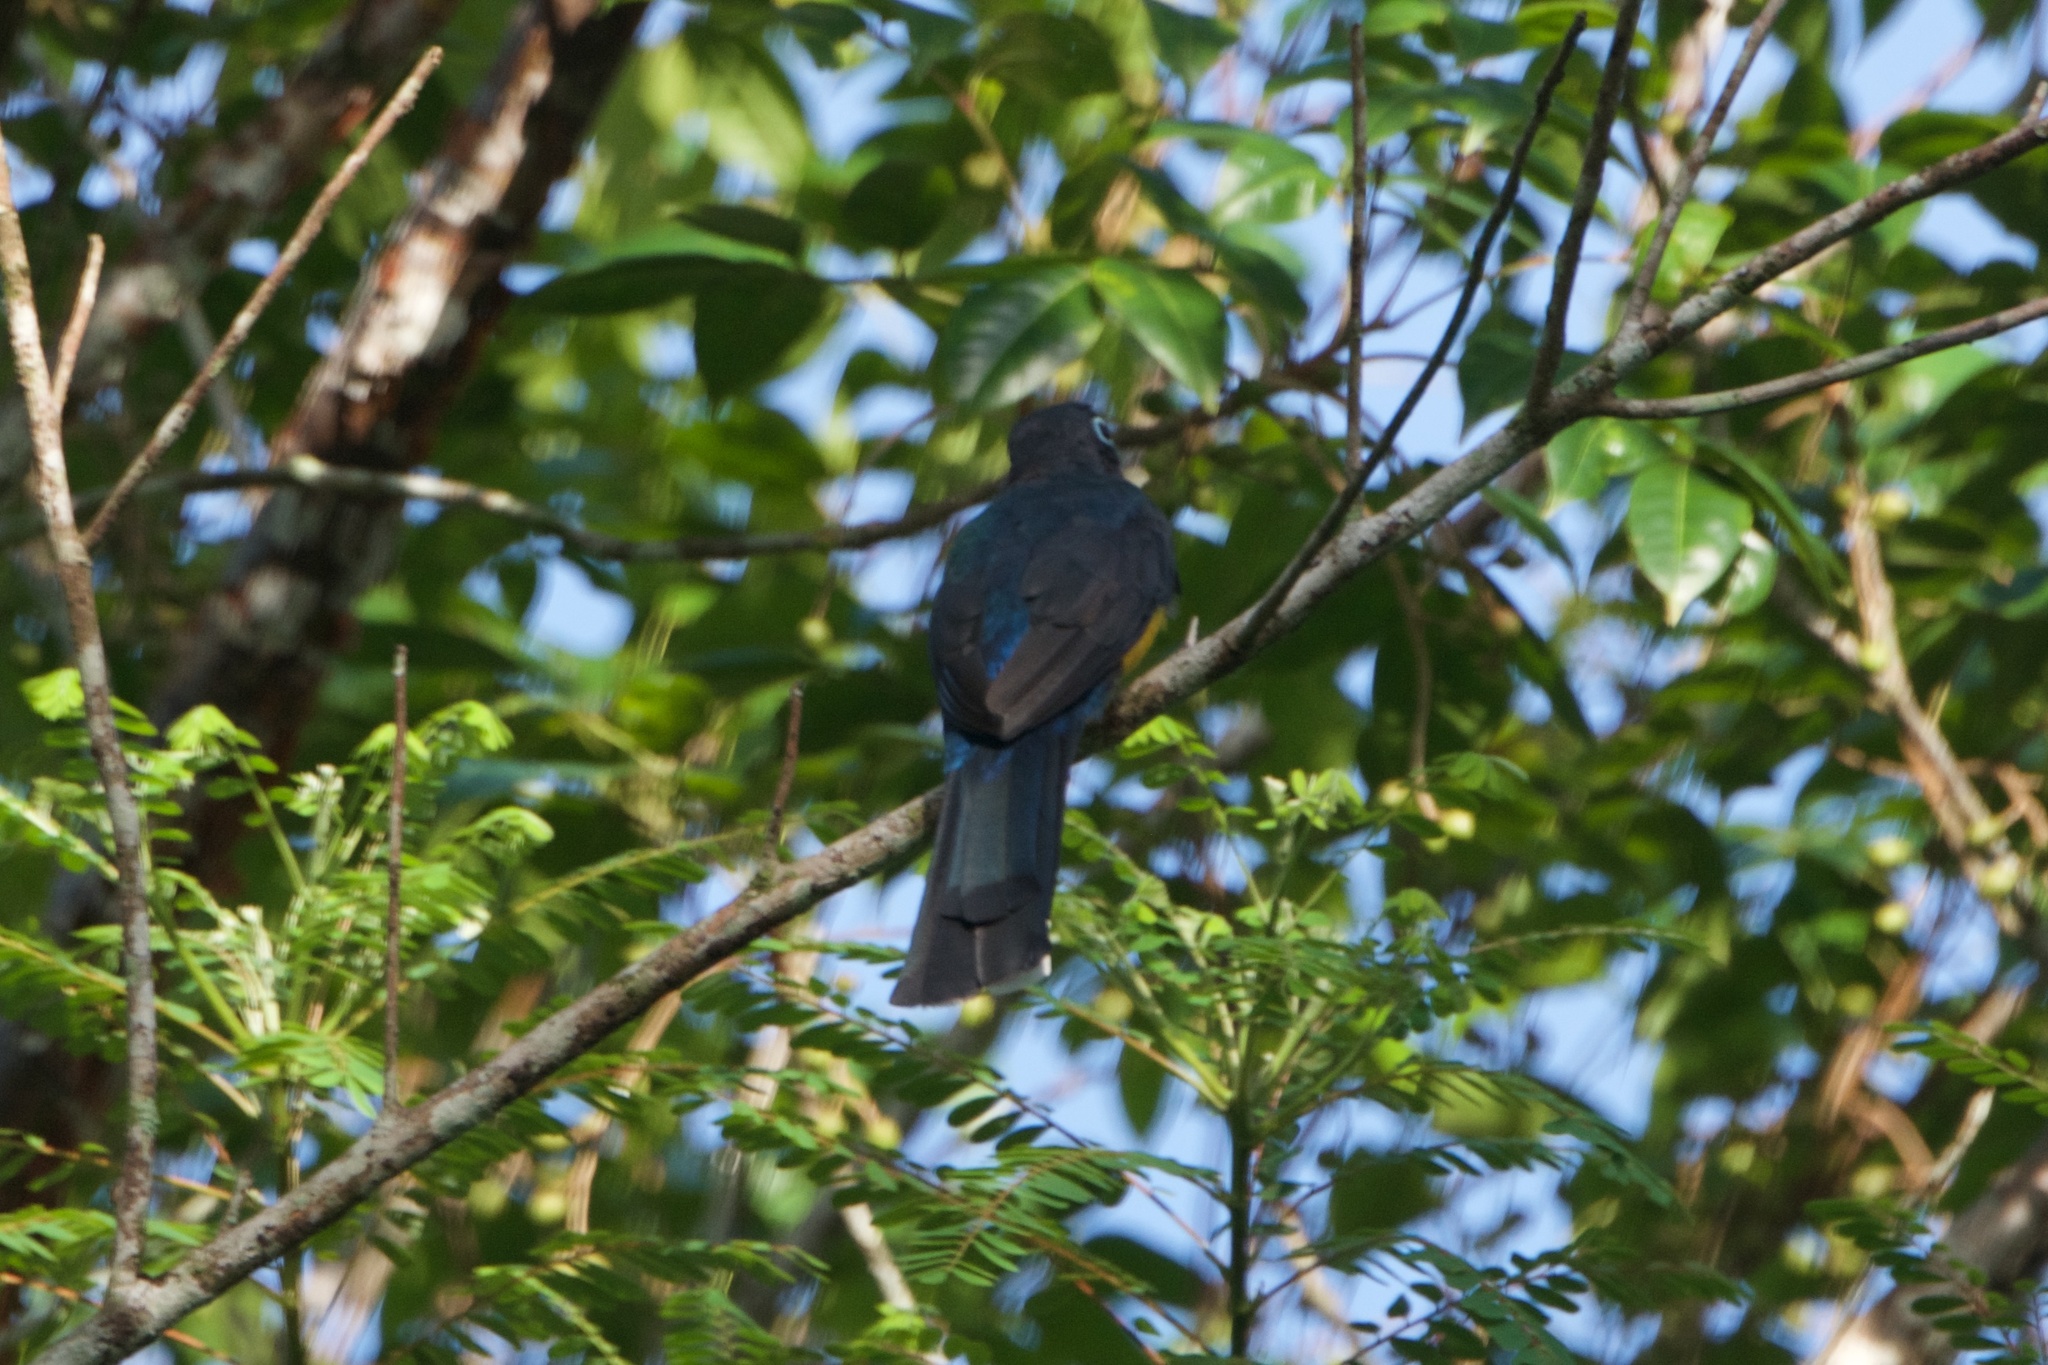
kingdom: Animalia
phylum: Chordata
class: Aves
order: Trogoniformes
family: Trogonidae
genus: Trogon
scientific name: Trogon melanocephalus
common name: Black-headed trogon
